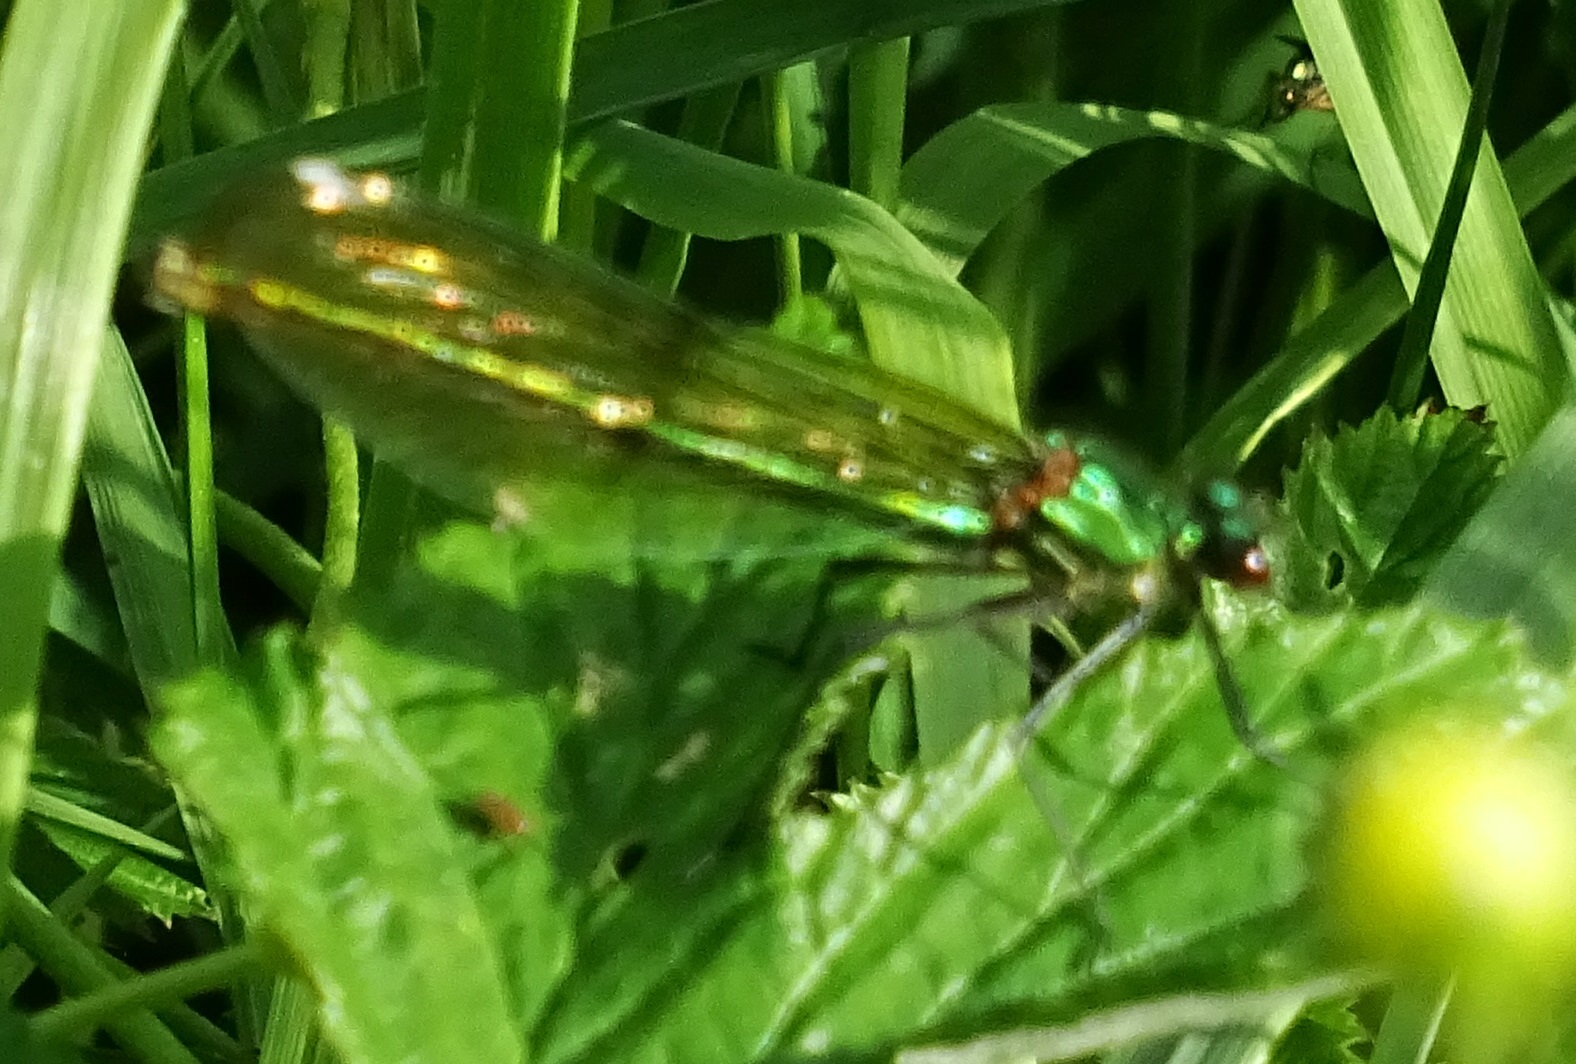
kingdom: Animalia
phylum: Arthropoda
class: Insecta
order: Odonata
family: Calopterygidae
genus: Calopteryx
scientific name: Calopteryx splendens
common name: Banded demoiselle
